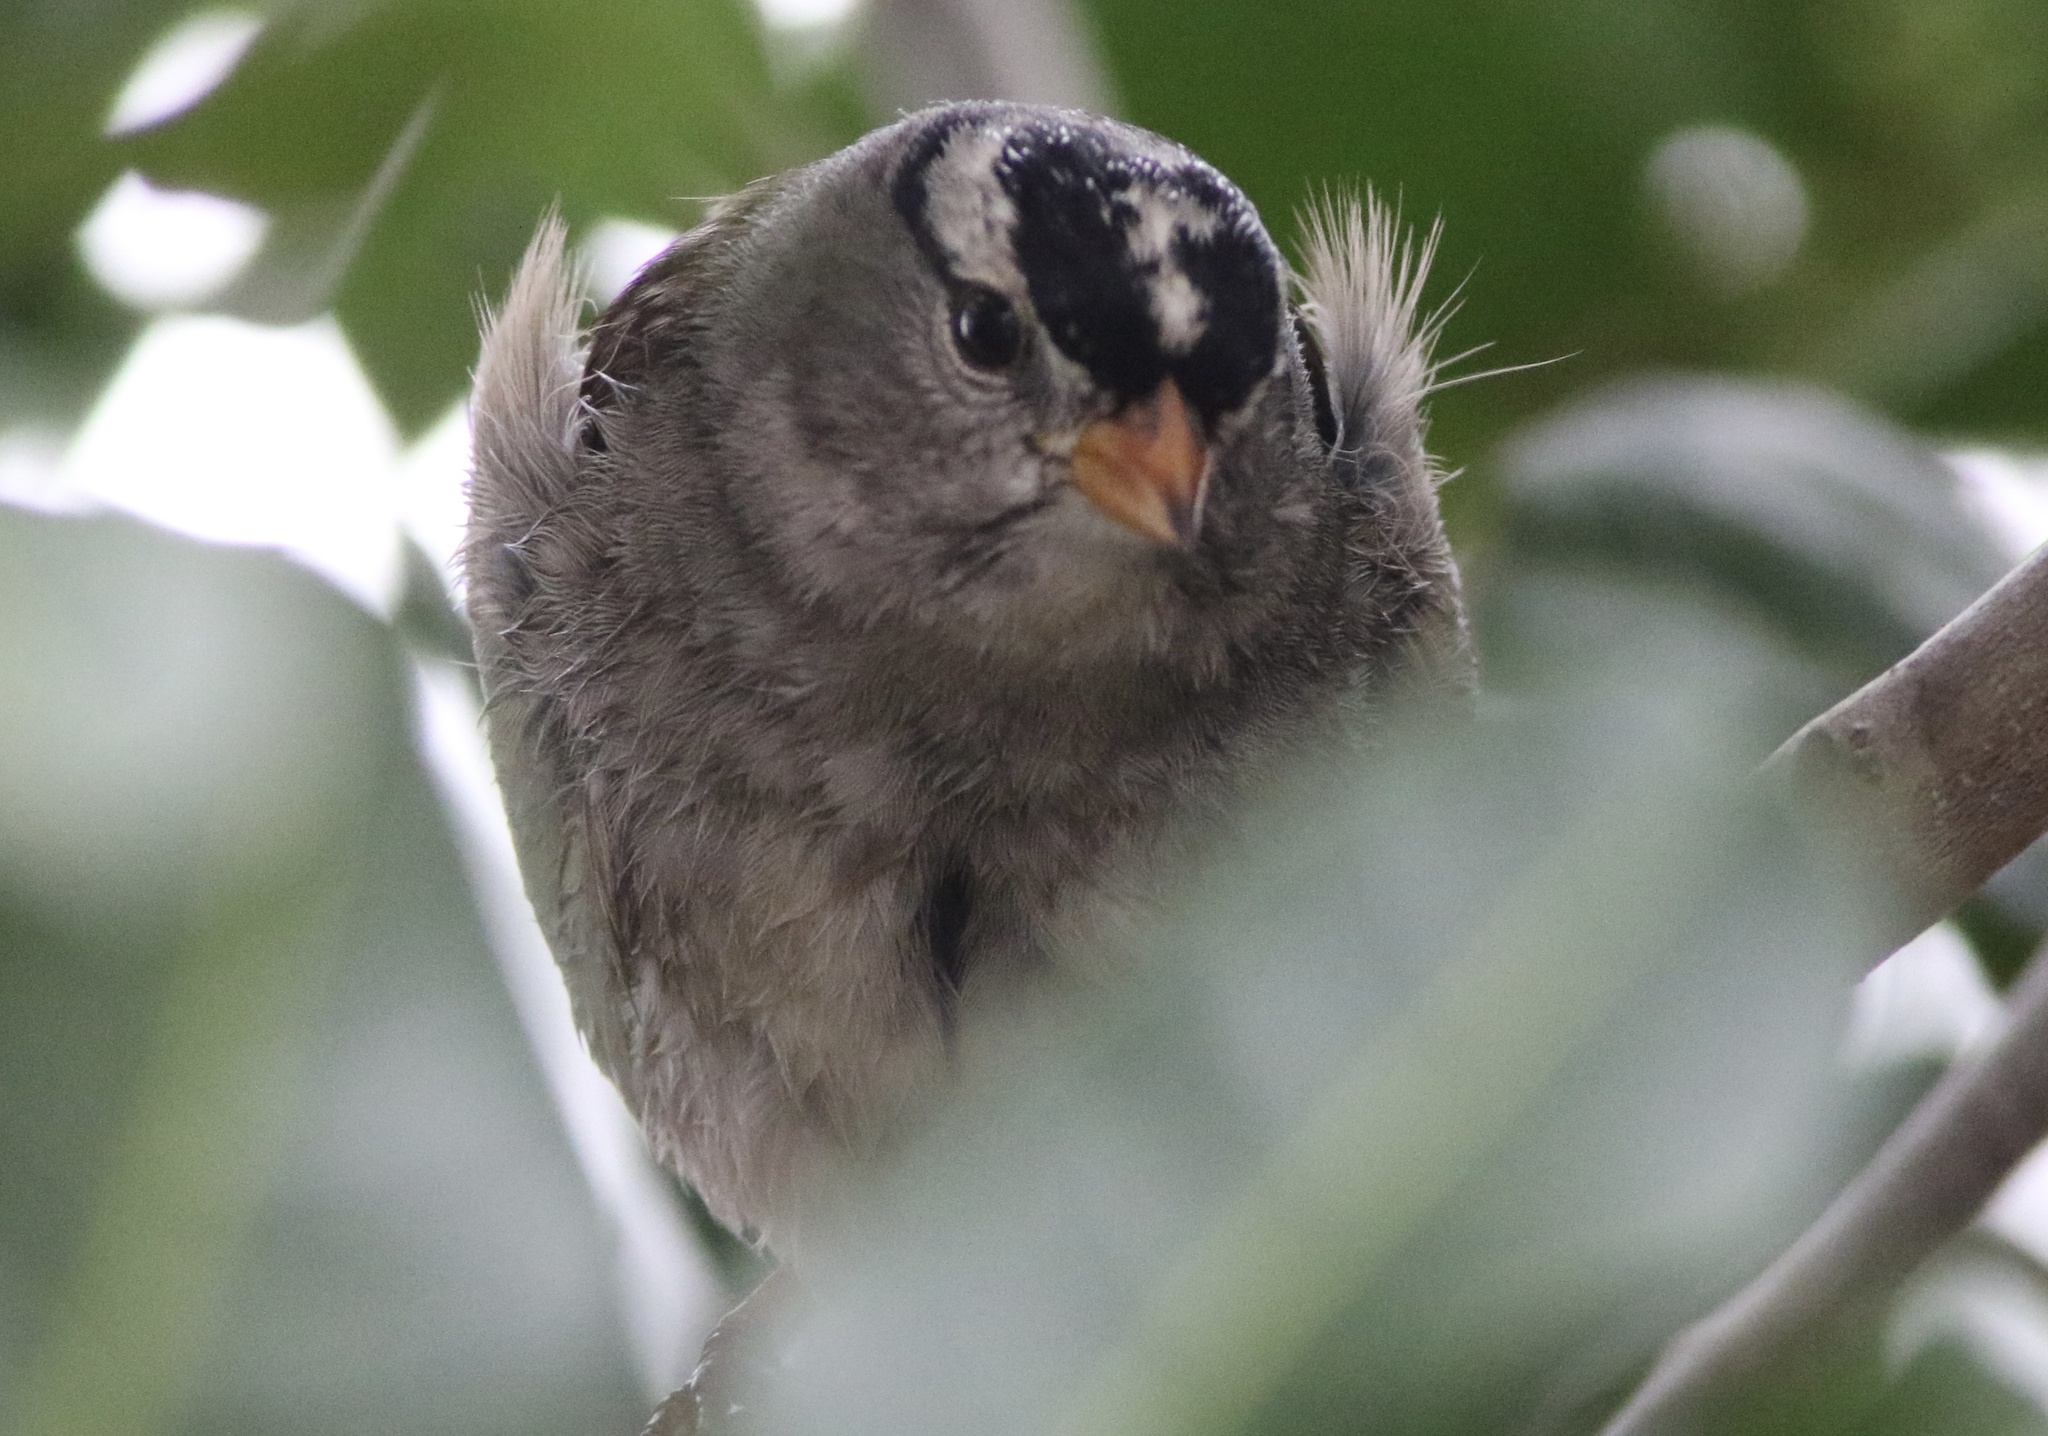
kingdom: Animalia
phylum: Chordata
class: Aves
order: Passeriformes
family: Passerellidae
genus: Zonotrichia
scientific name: Zonotrichia leucophrys
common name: White-crowned sparrow
